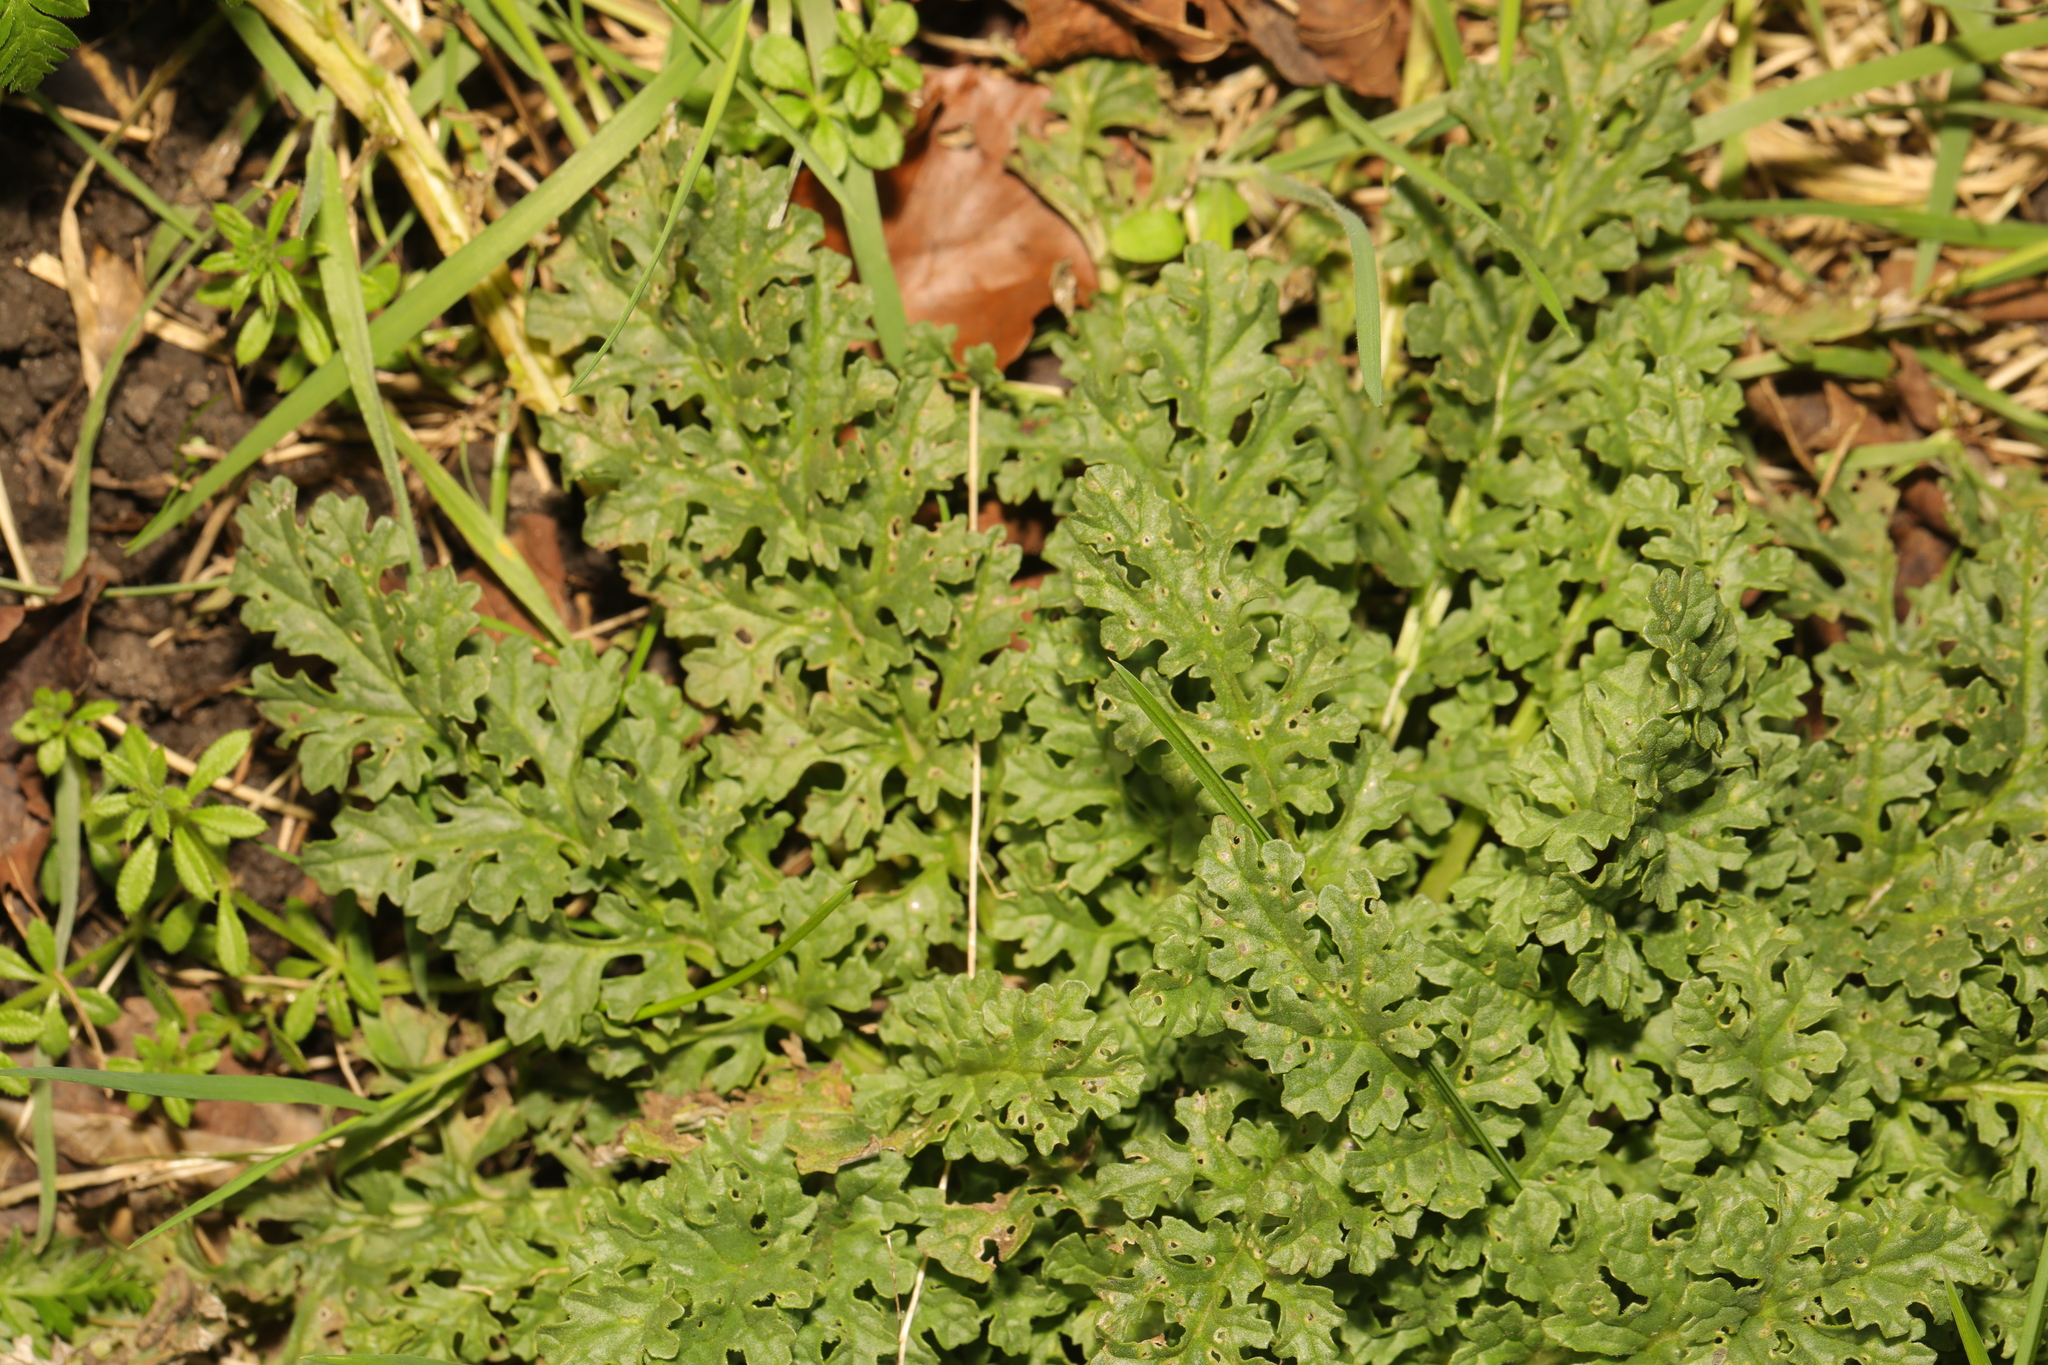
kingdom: Plantae
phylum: Tracheophyta
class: Magnoliopsida
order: Asterales
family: Asteraceae
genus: Jacobaea
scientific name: Jacobaea vulgaris
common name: Stinking willie
